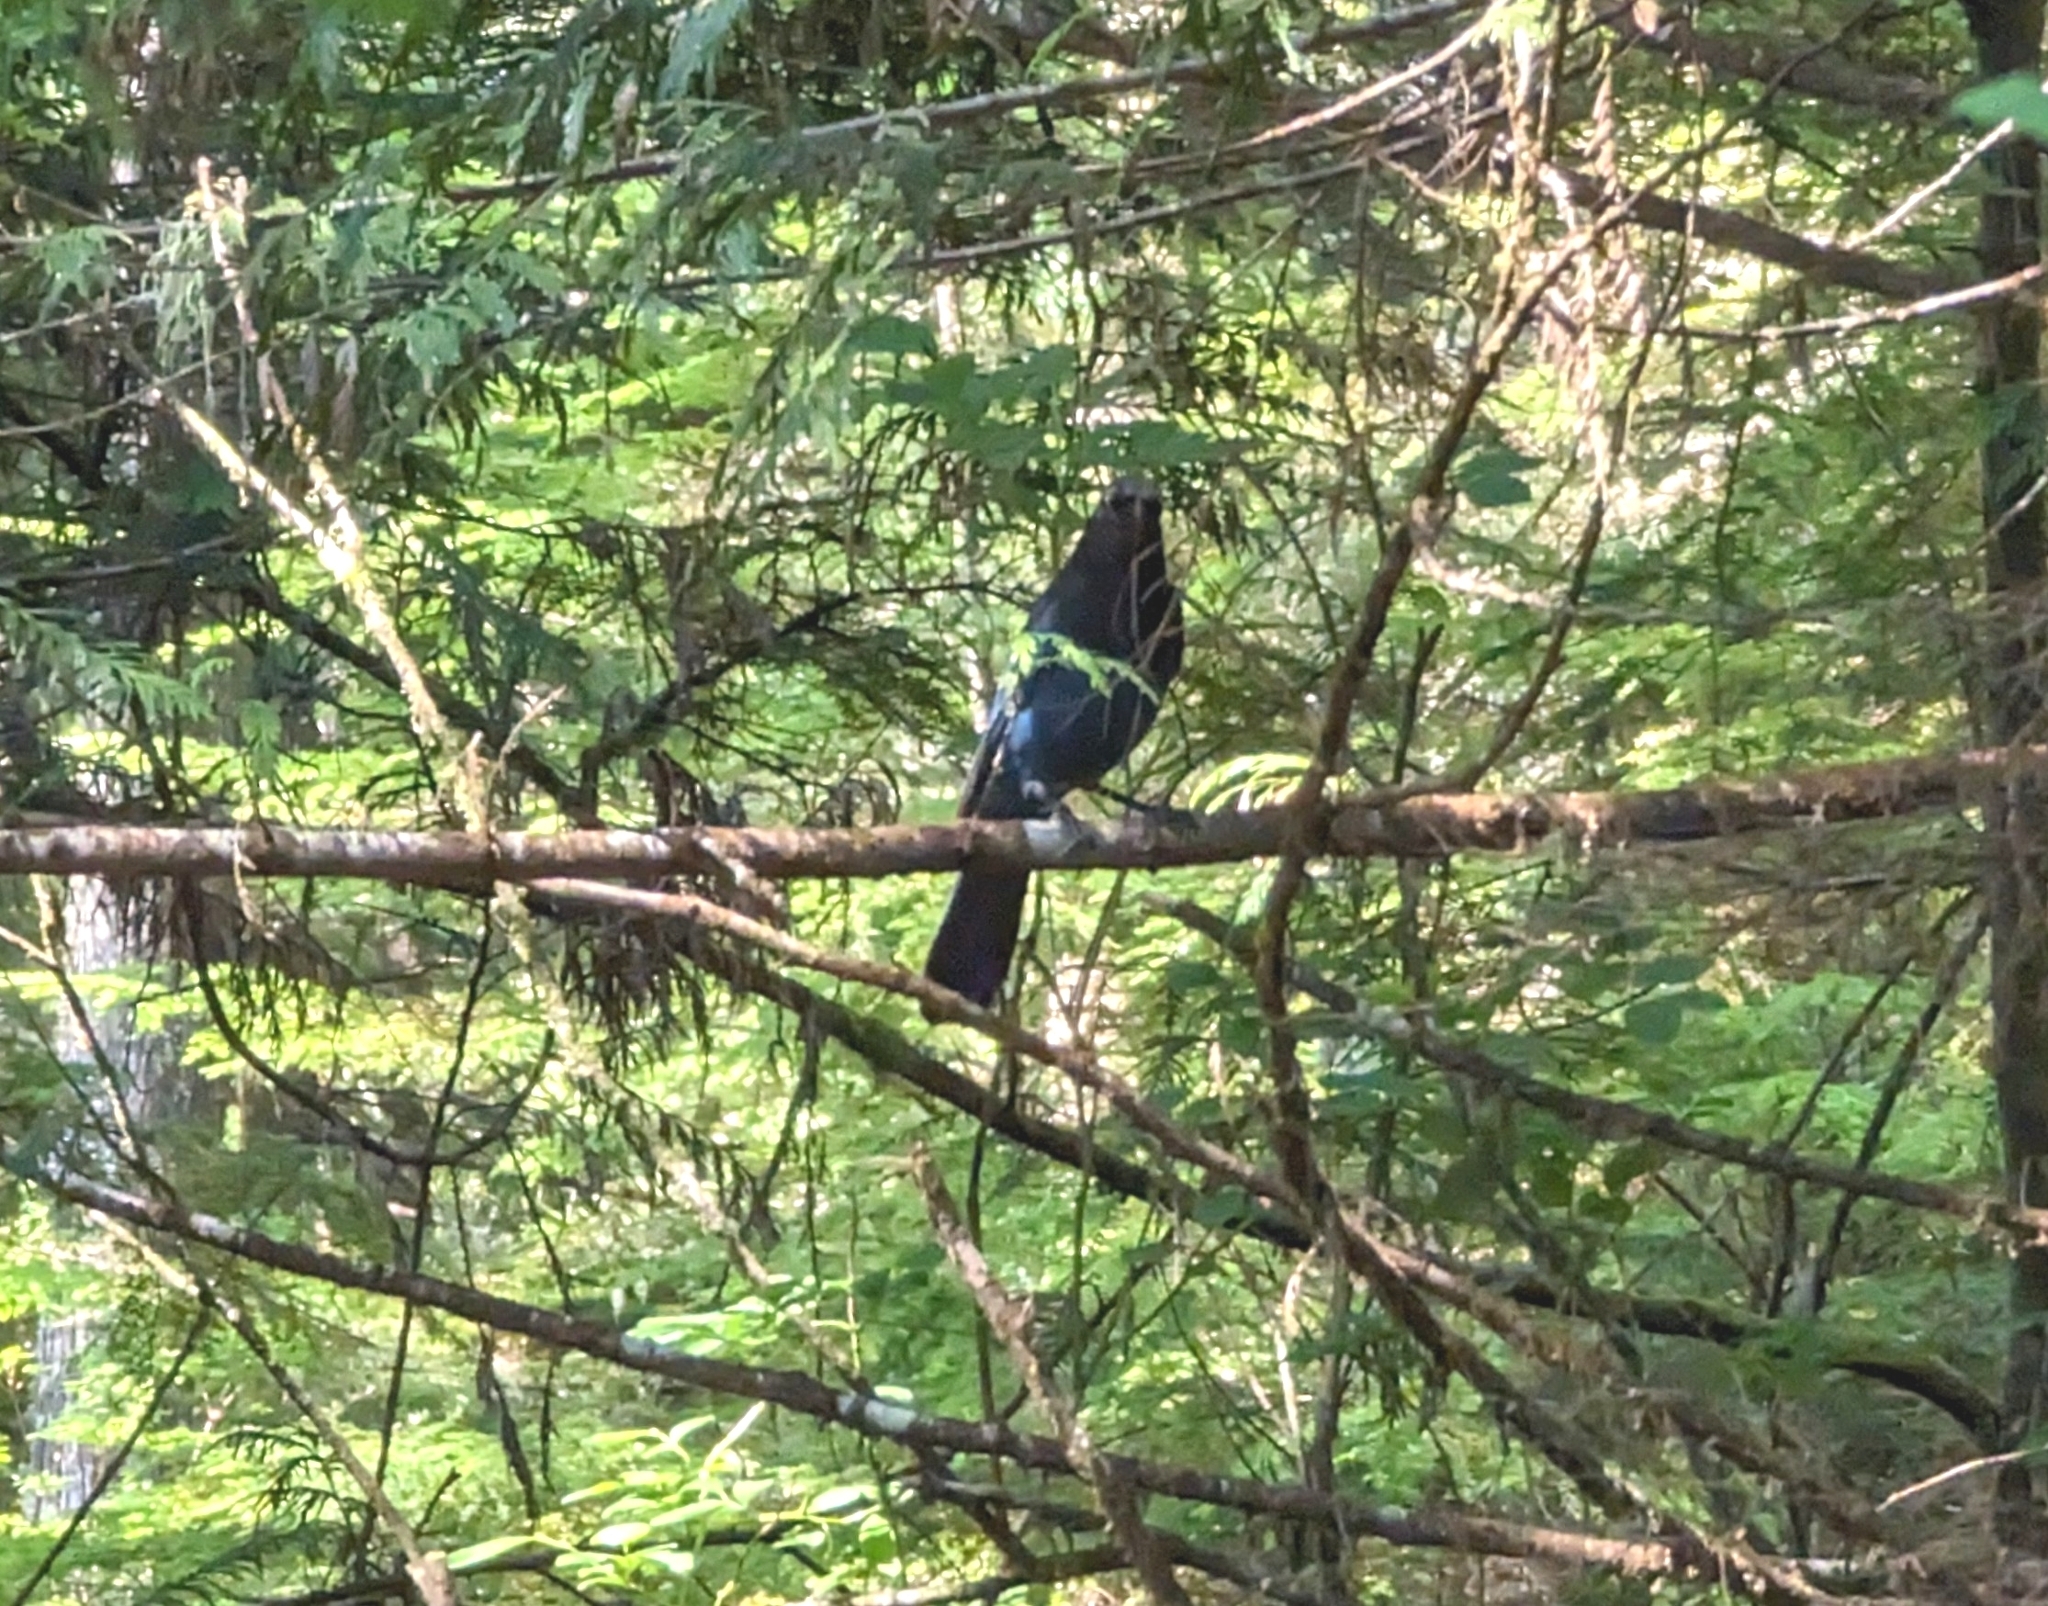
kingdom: Animalia
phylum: Chordata
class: Aves
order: Passeriformes
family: Corvidae
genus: Cyanocitta
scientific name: Cyanocitta stelleri
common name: Steller's jay
